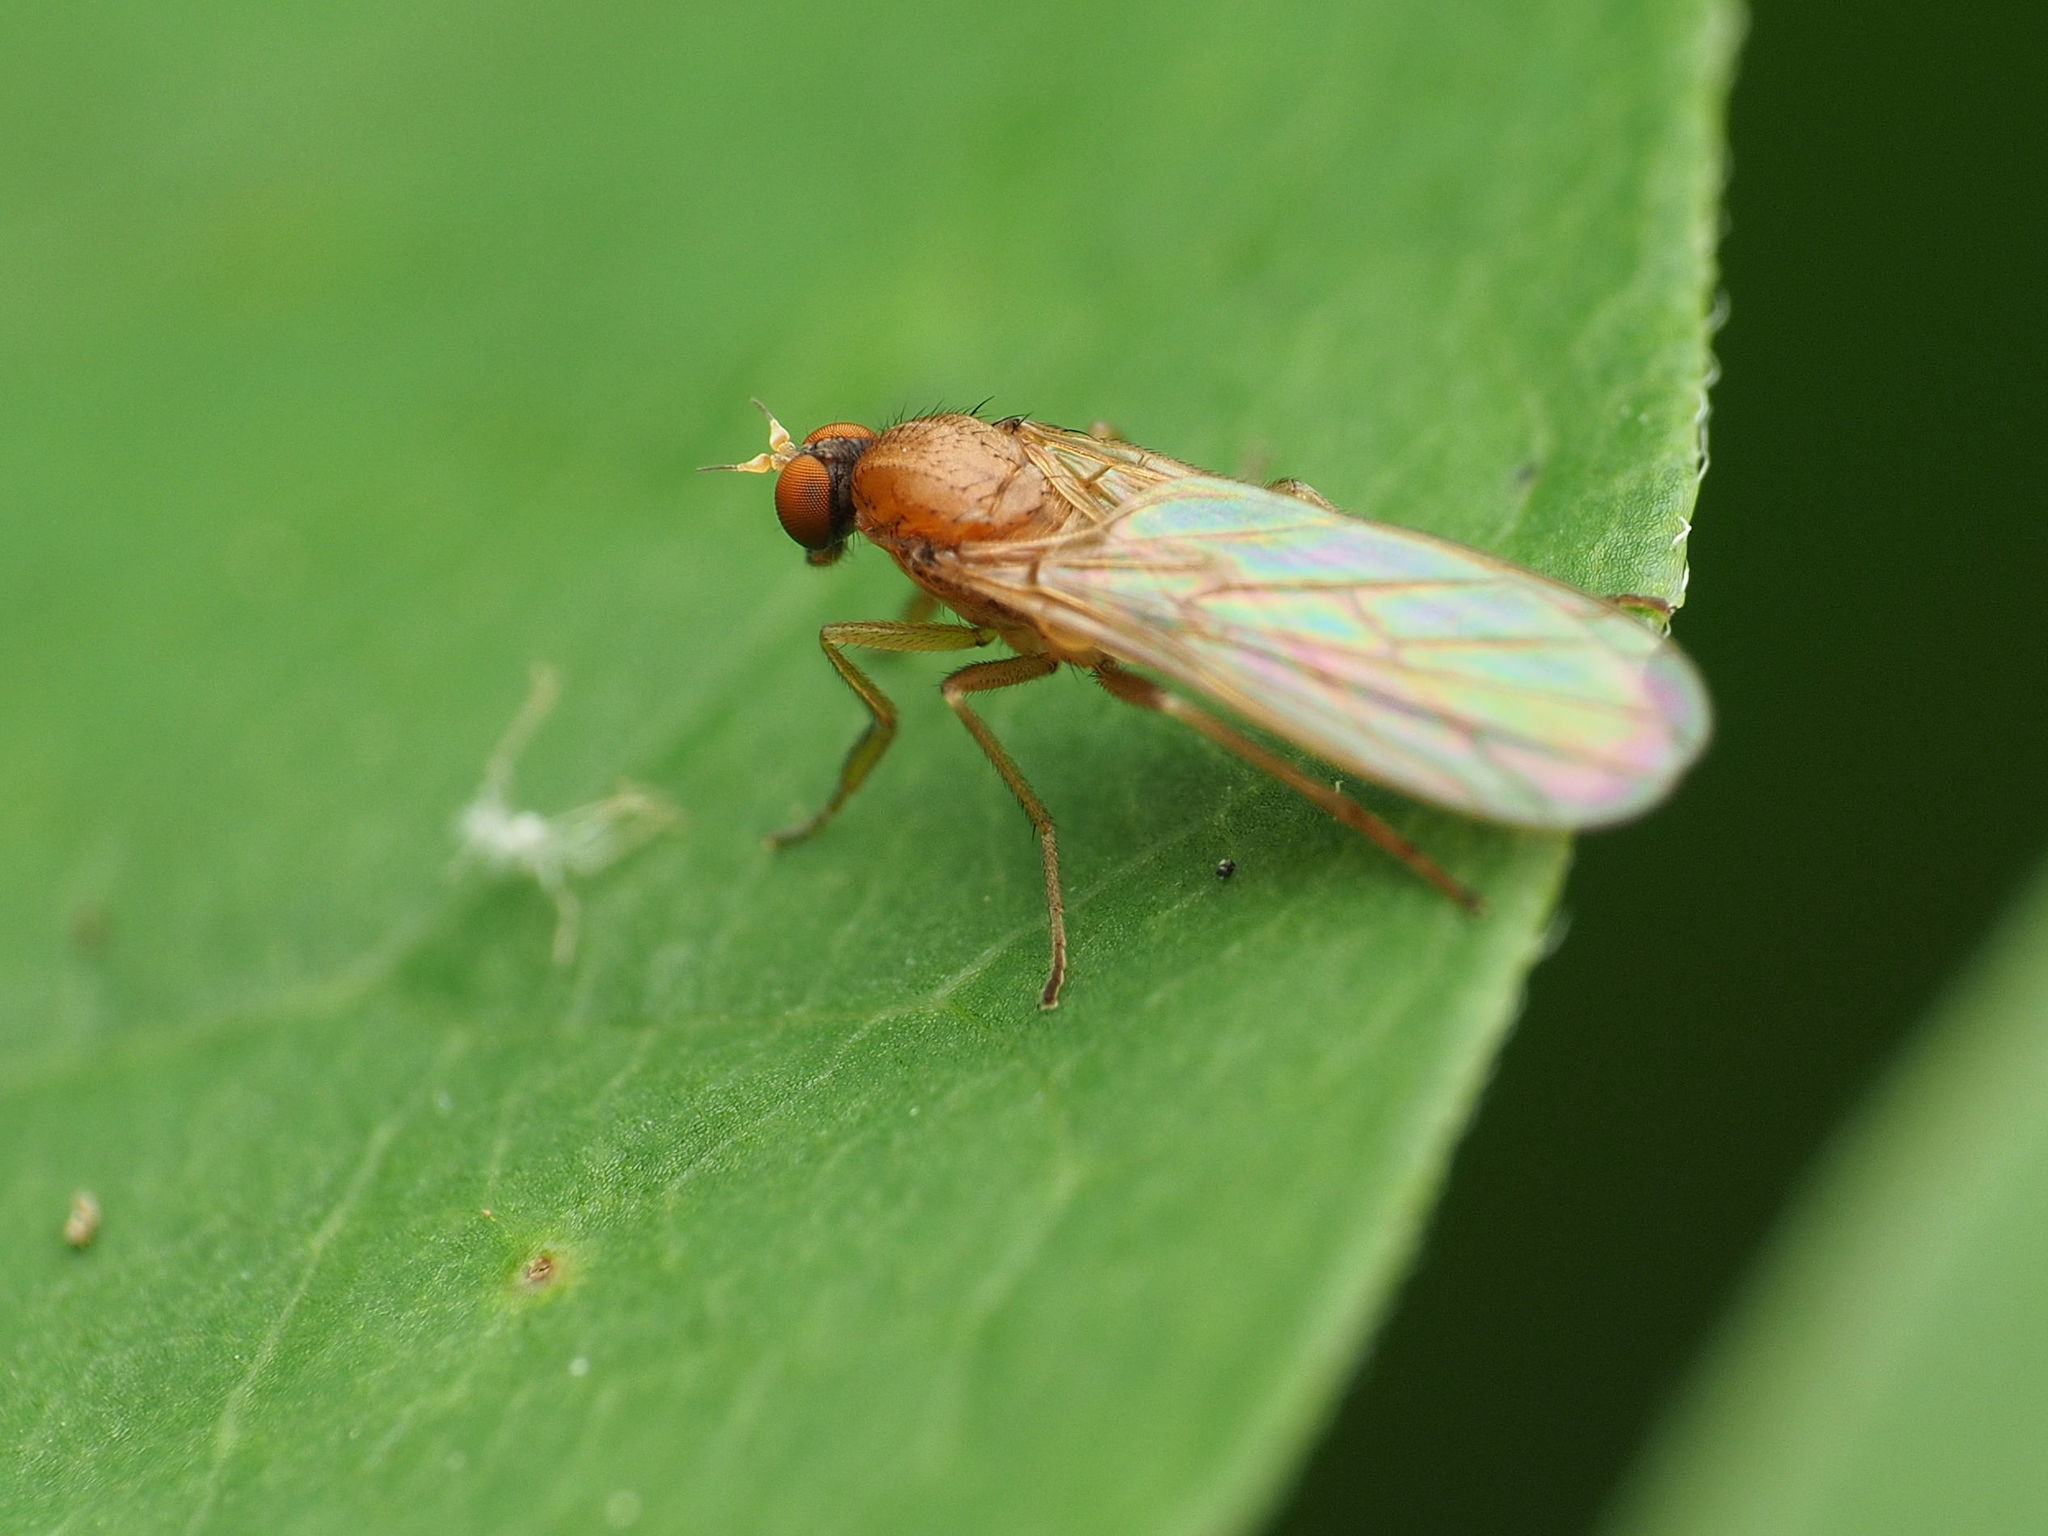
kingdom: Animalia
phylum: Arthropoda
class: Insecta
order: Diptera
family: Empididae
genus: Hilara
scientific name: Hilara lutea
